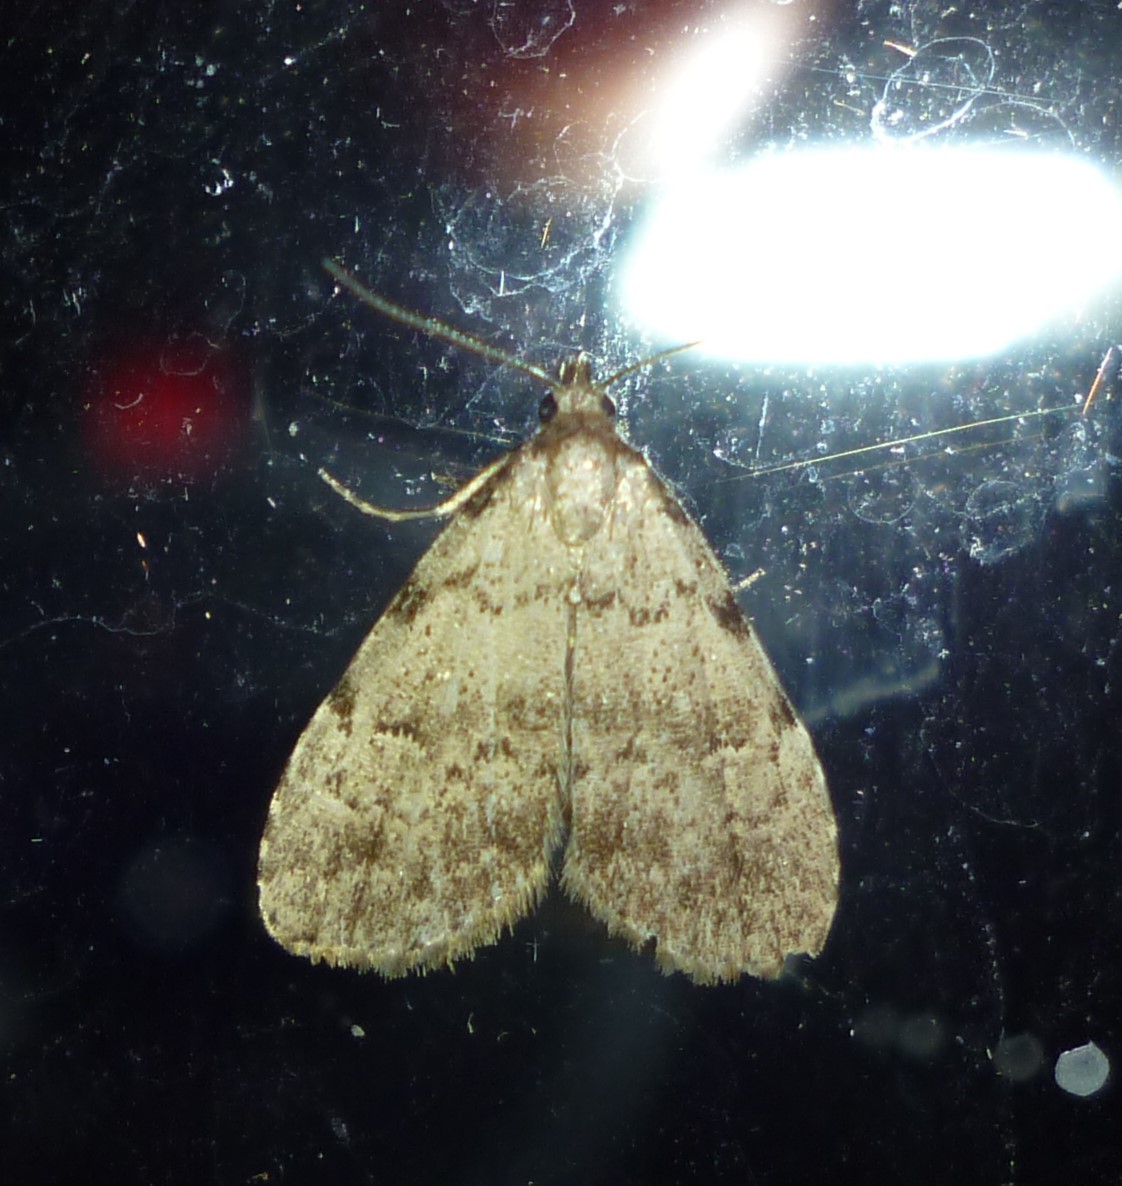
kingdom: Animalia
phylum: Arthropoda
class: Insecta
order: Lepidoptera
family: Erebidae
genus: Dyspyralis
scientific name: Dyspyralis puncticosta
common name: Spot-edged dyspyralis moth
